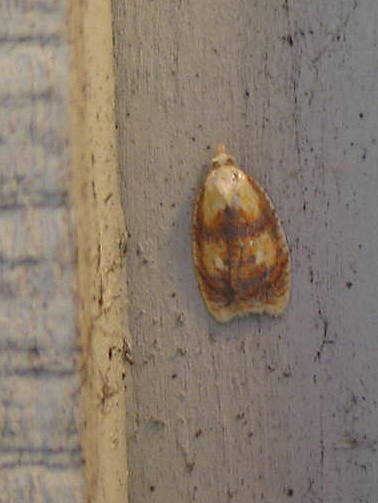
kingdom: Animalia
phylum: Arthropoda
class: Insecta
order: Lepidoptera
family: Tortricidae
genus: Acleris
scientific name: Acleris curvalana
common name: Blueberry leaftier moth
